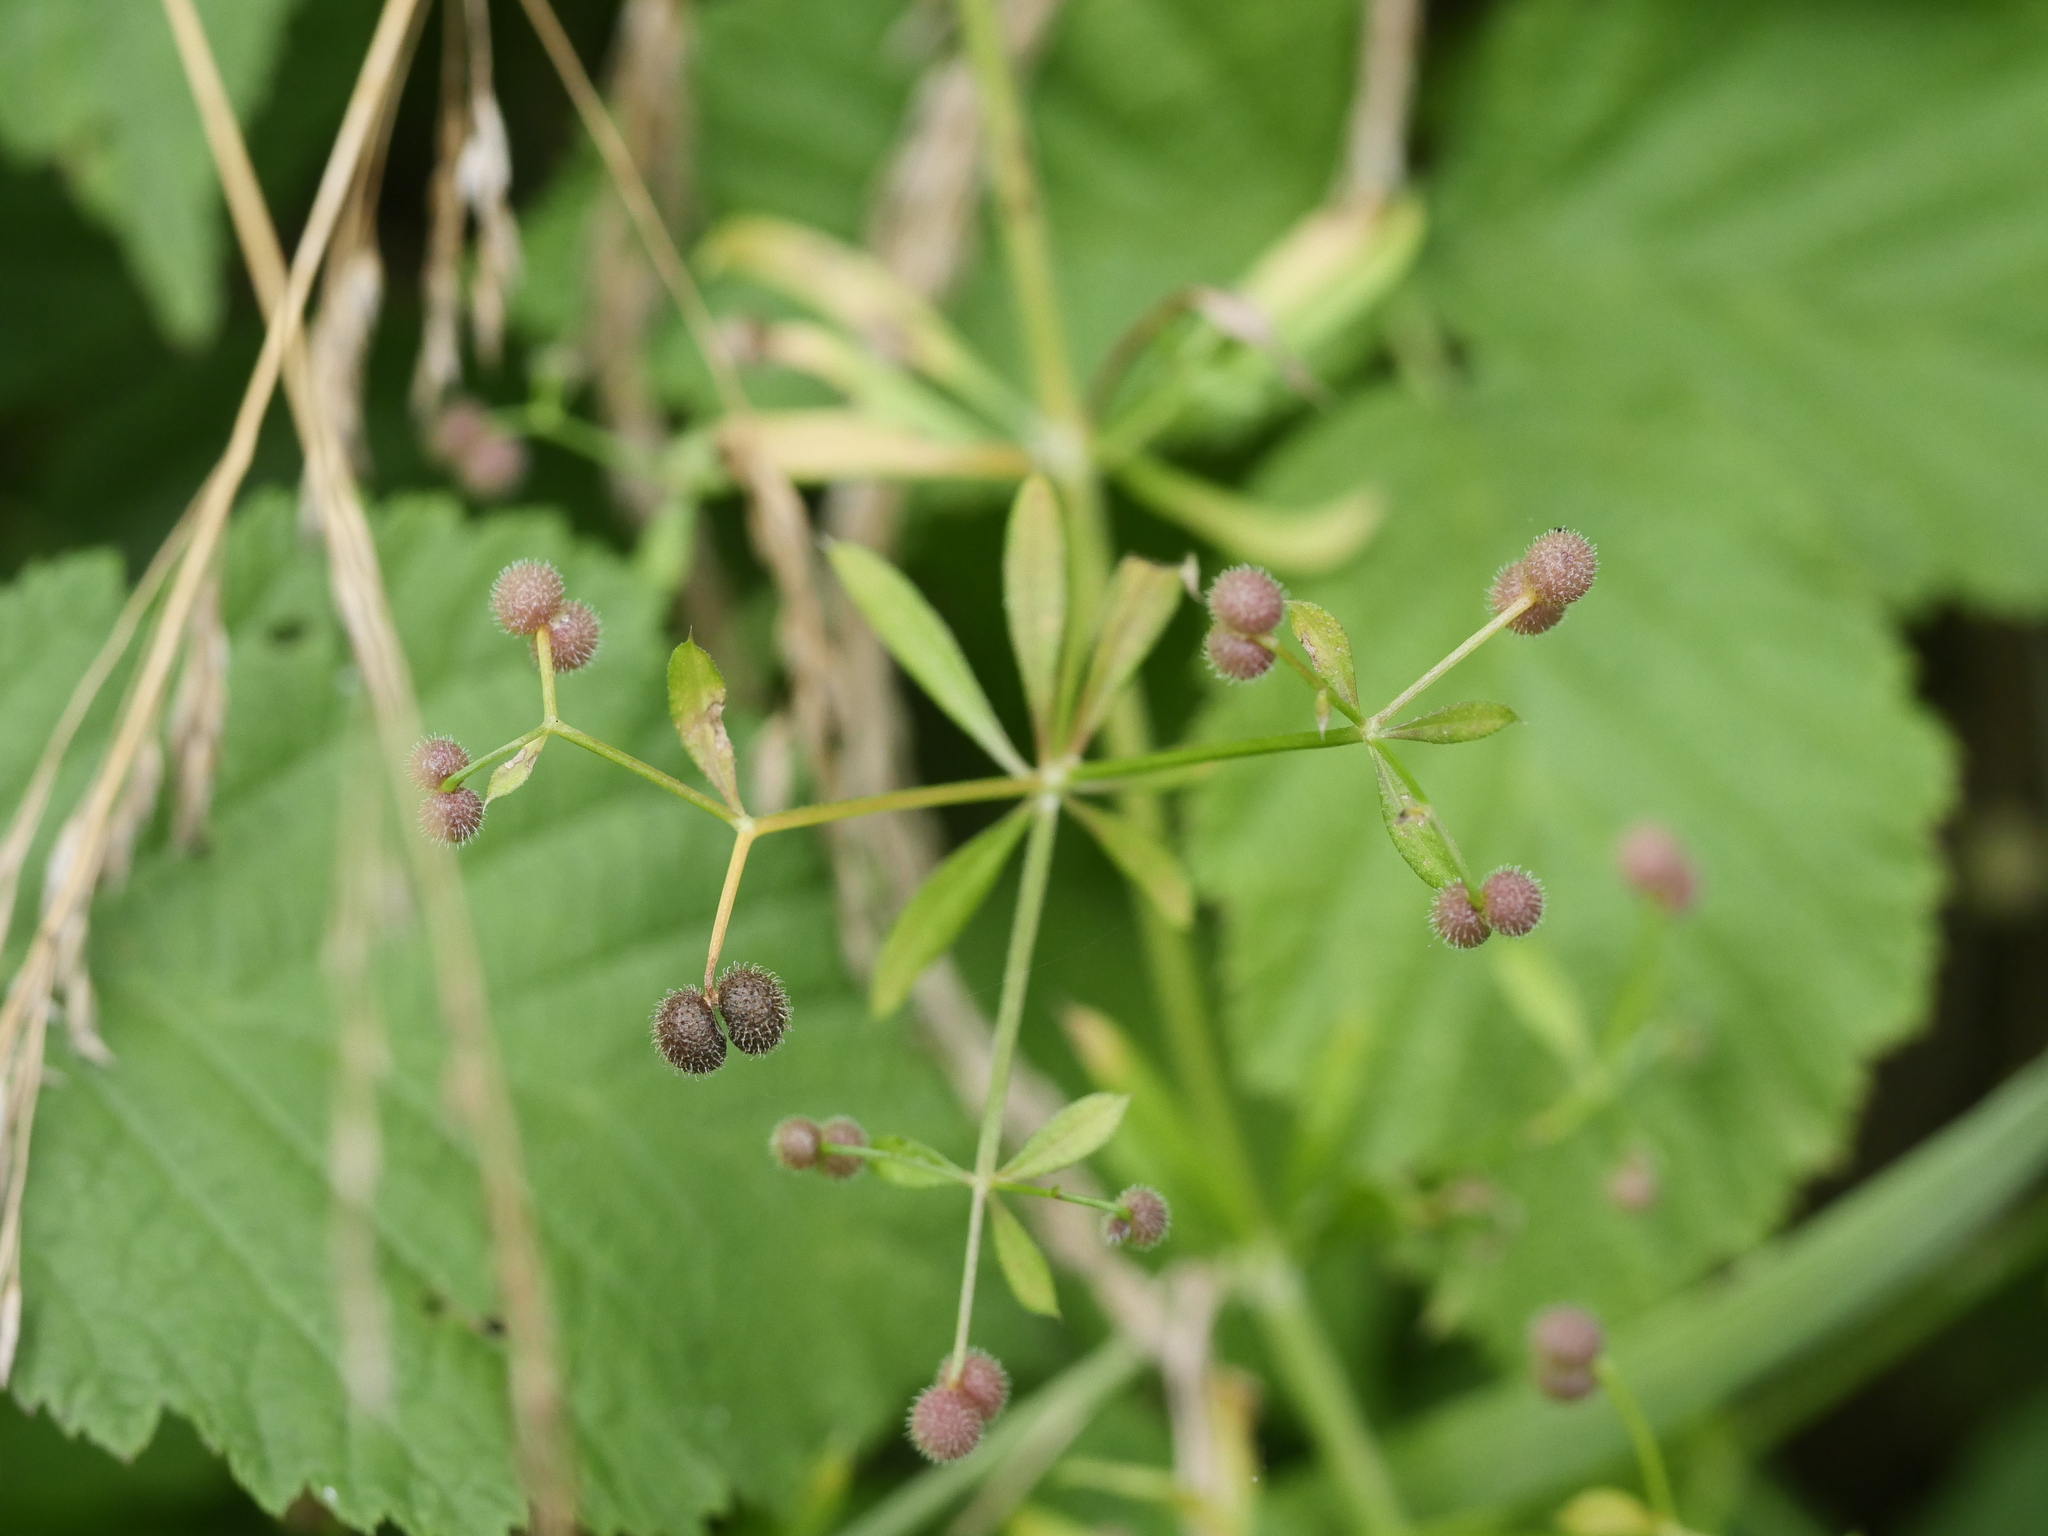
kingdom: Plantae
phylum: Tracheophyta
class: Magnoliopsida
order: Gentianales
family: Rubiaceae
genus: Galium
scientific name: Galium aparine
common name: Cleavers
